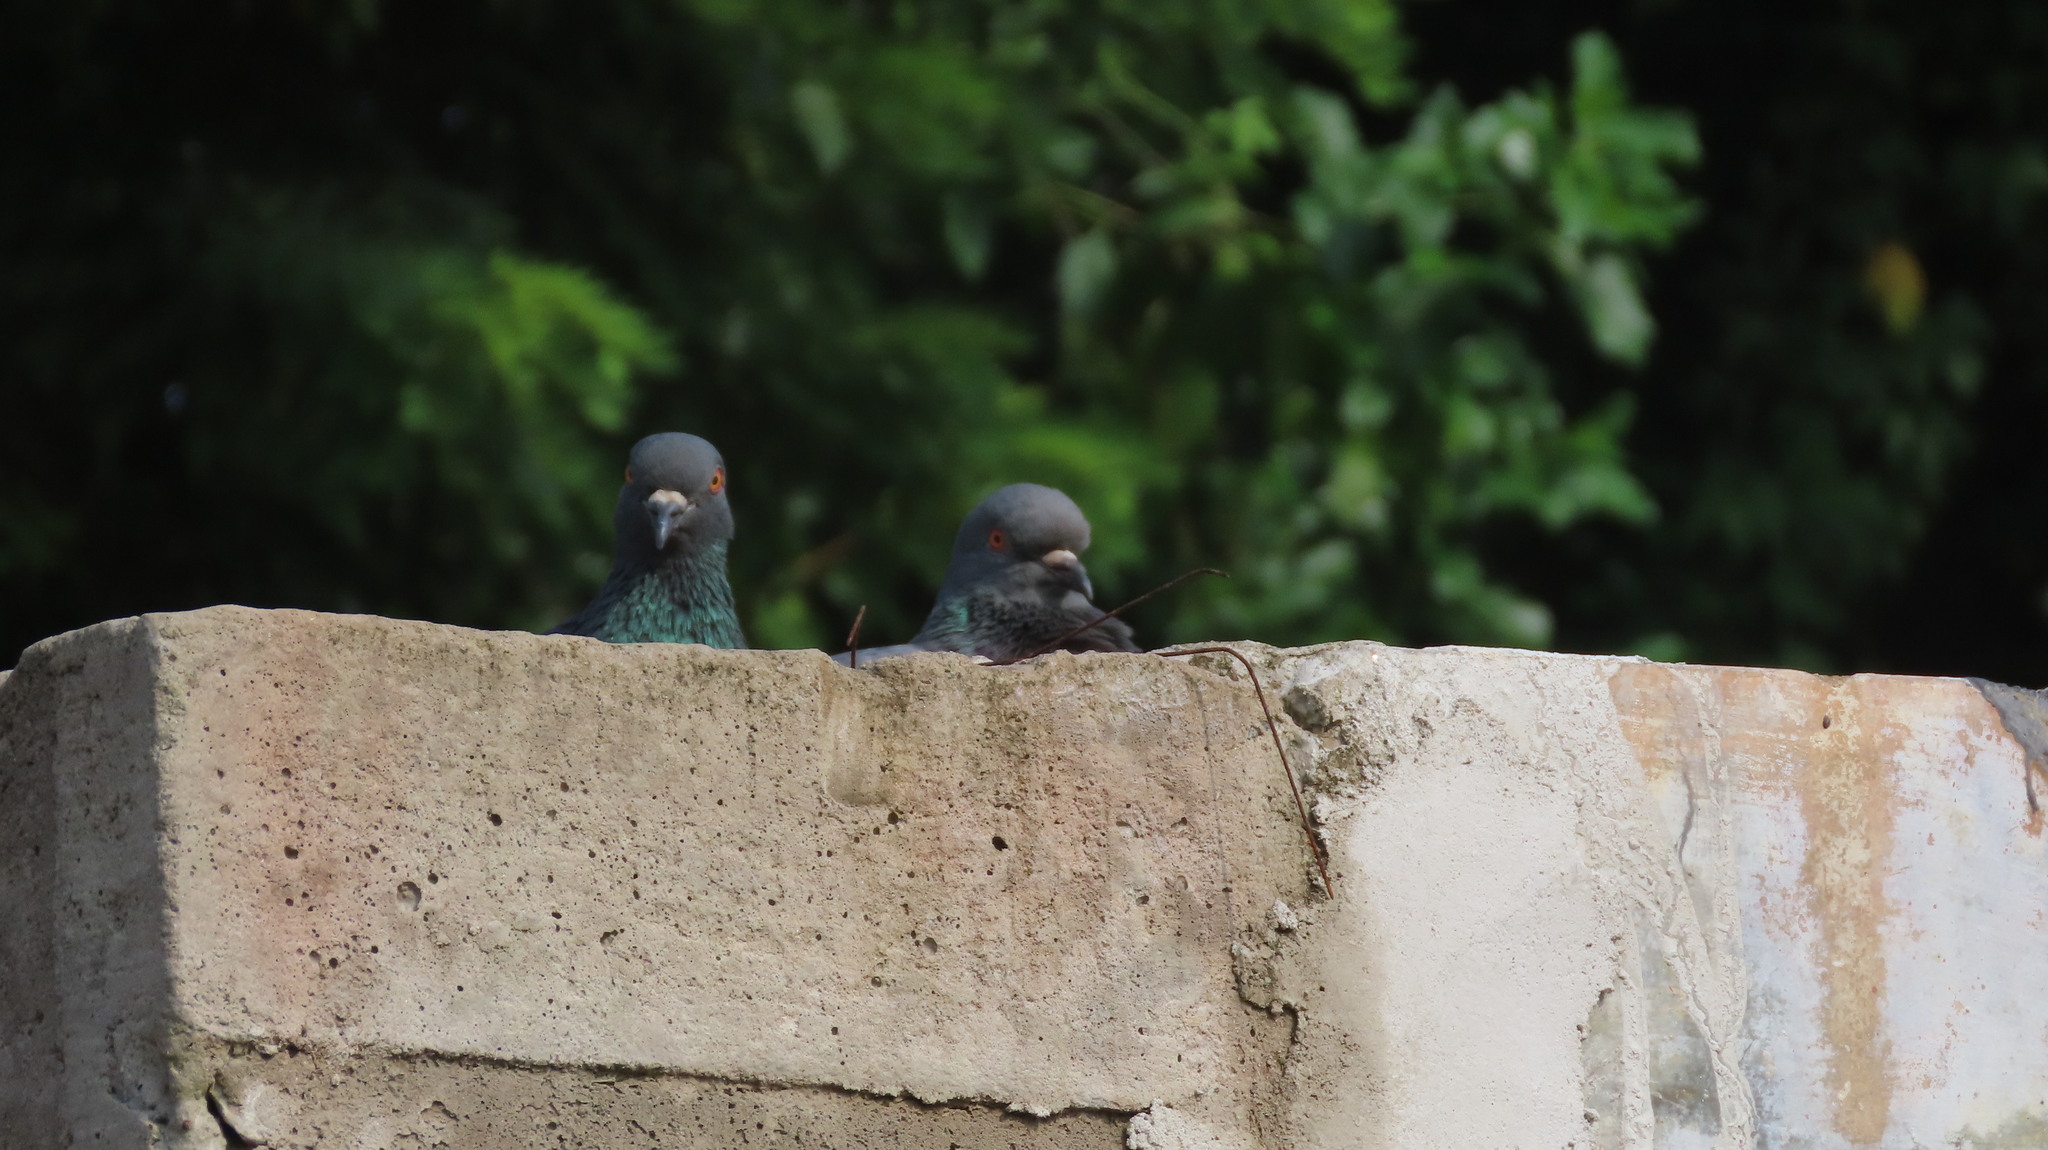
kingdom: Animalia
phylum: Chordata
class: Aves
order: Columbiformes
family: Columbidae
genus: Columba
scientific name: Columba livia
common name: Rock pigeon
